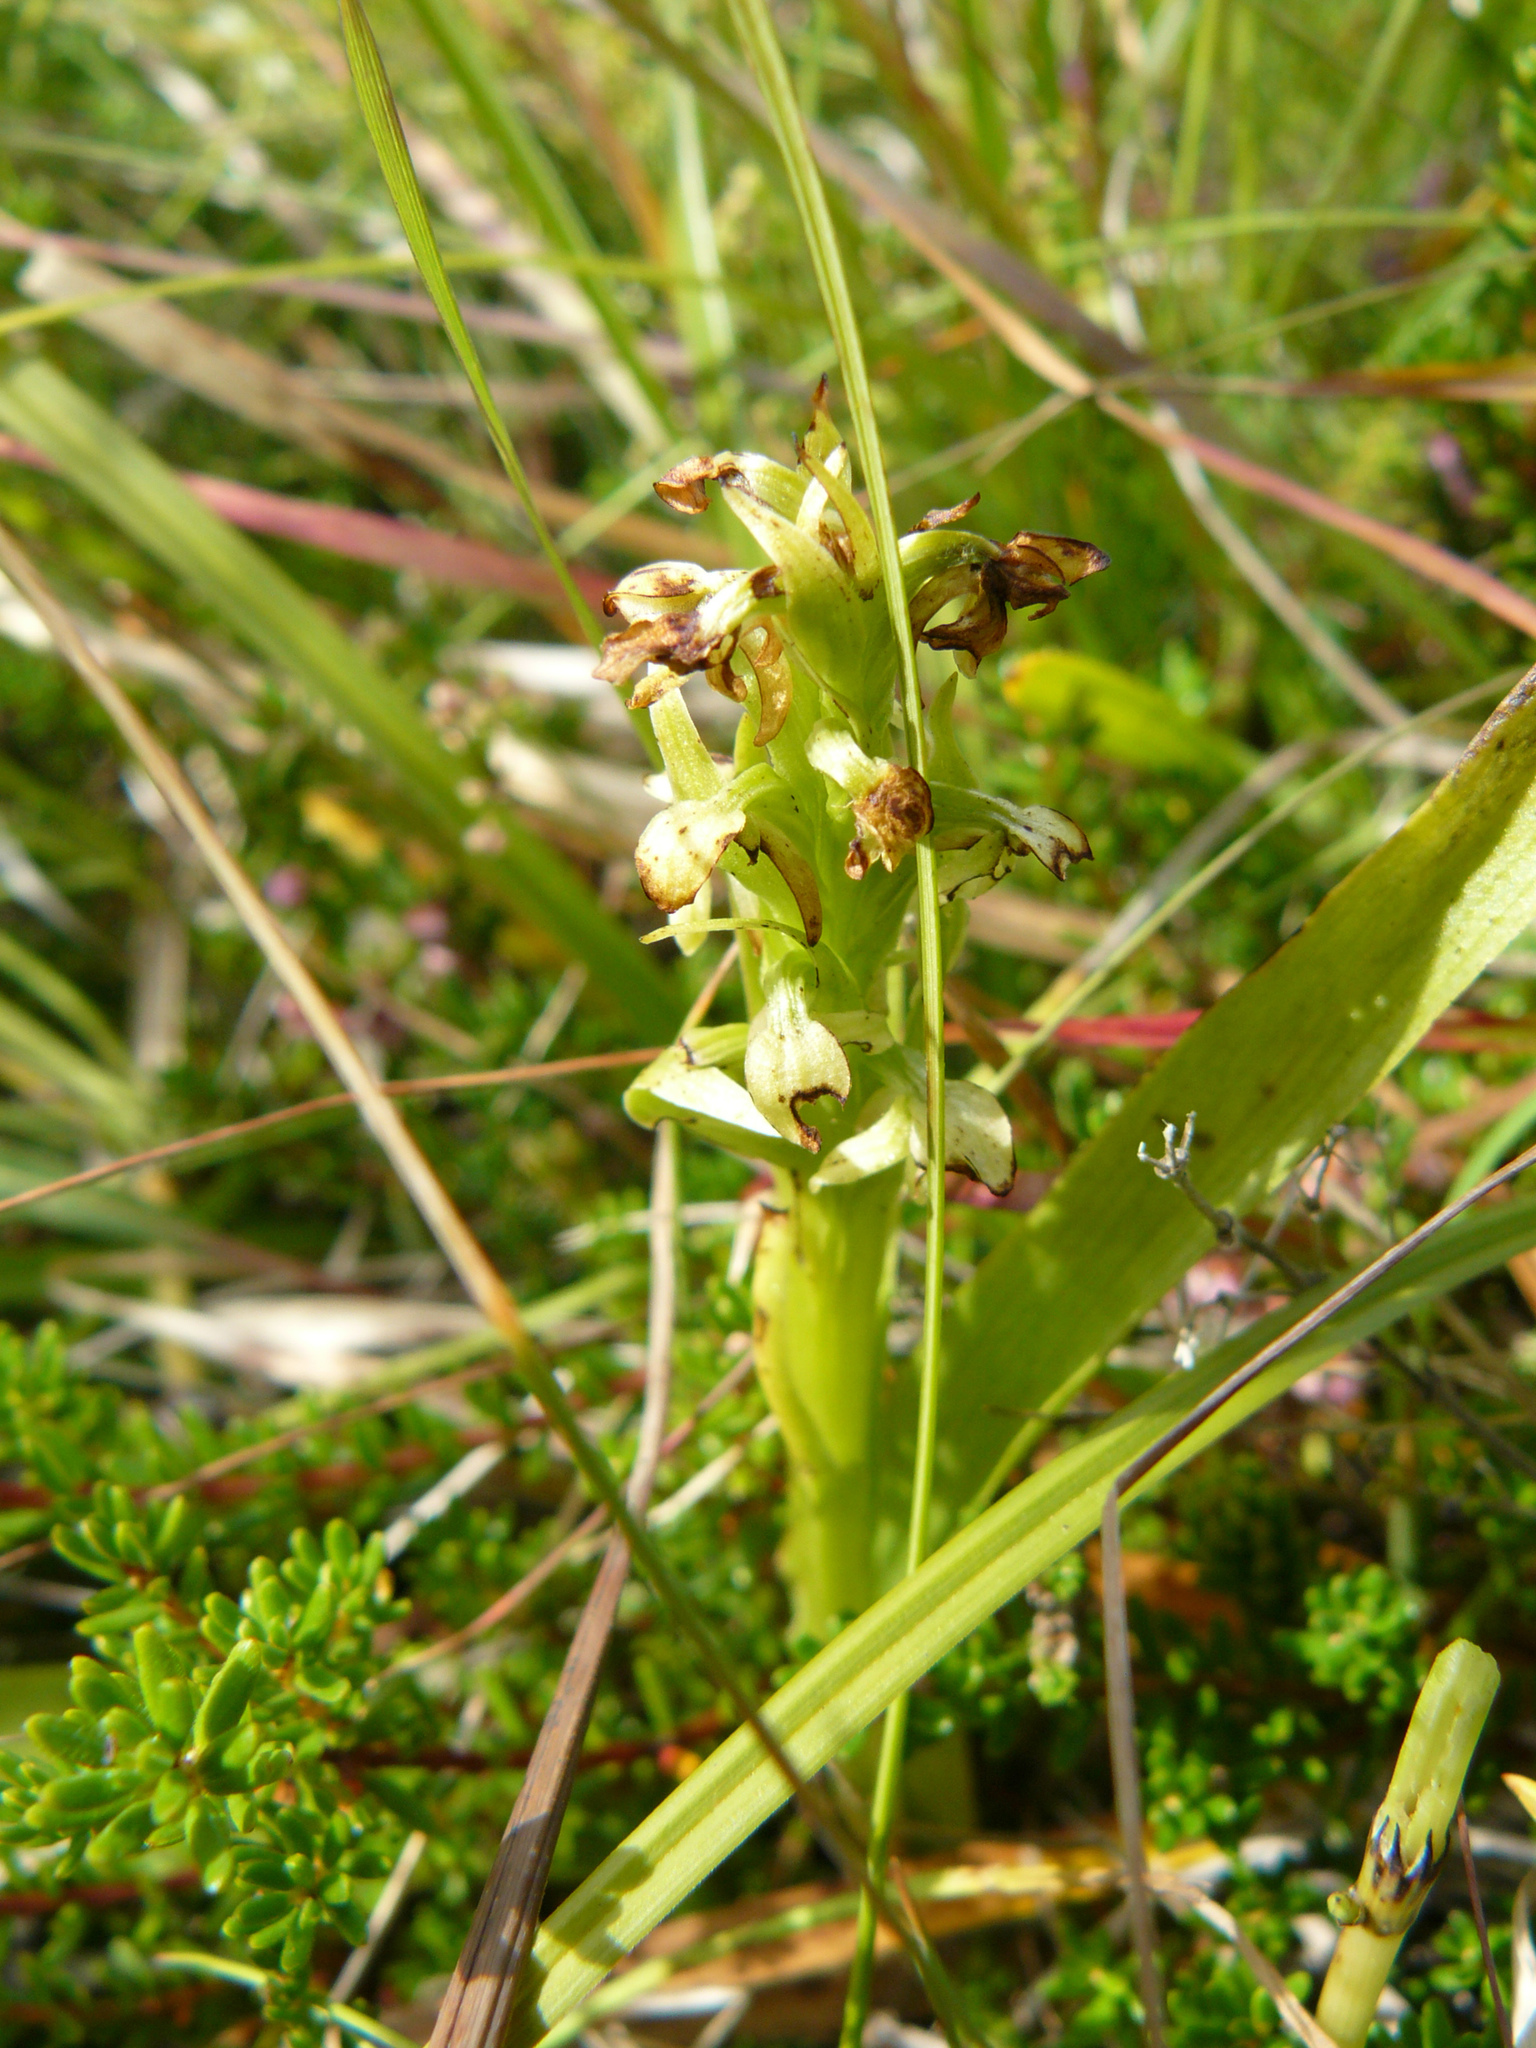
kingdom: Plantae
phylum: Tracheophyta
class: Liliopsida
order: Asparagales
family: Orchidaceae
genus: Platanthera
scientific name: Platanthera hyperborea
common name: Northern green orchid
